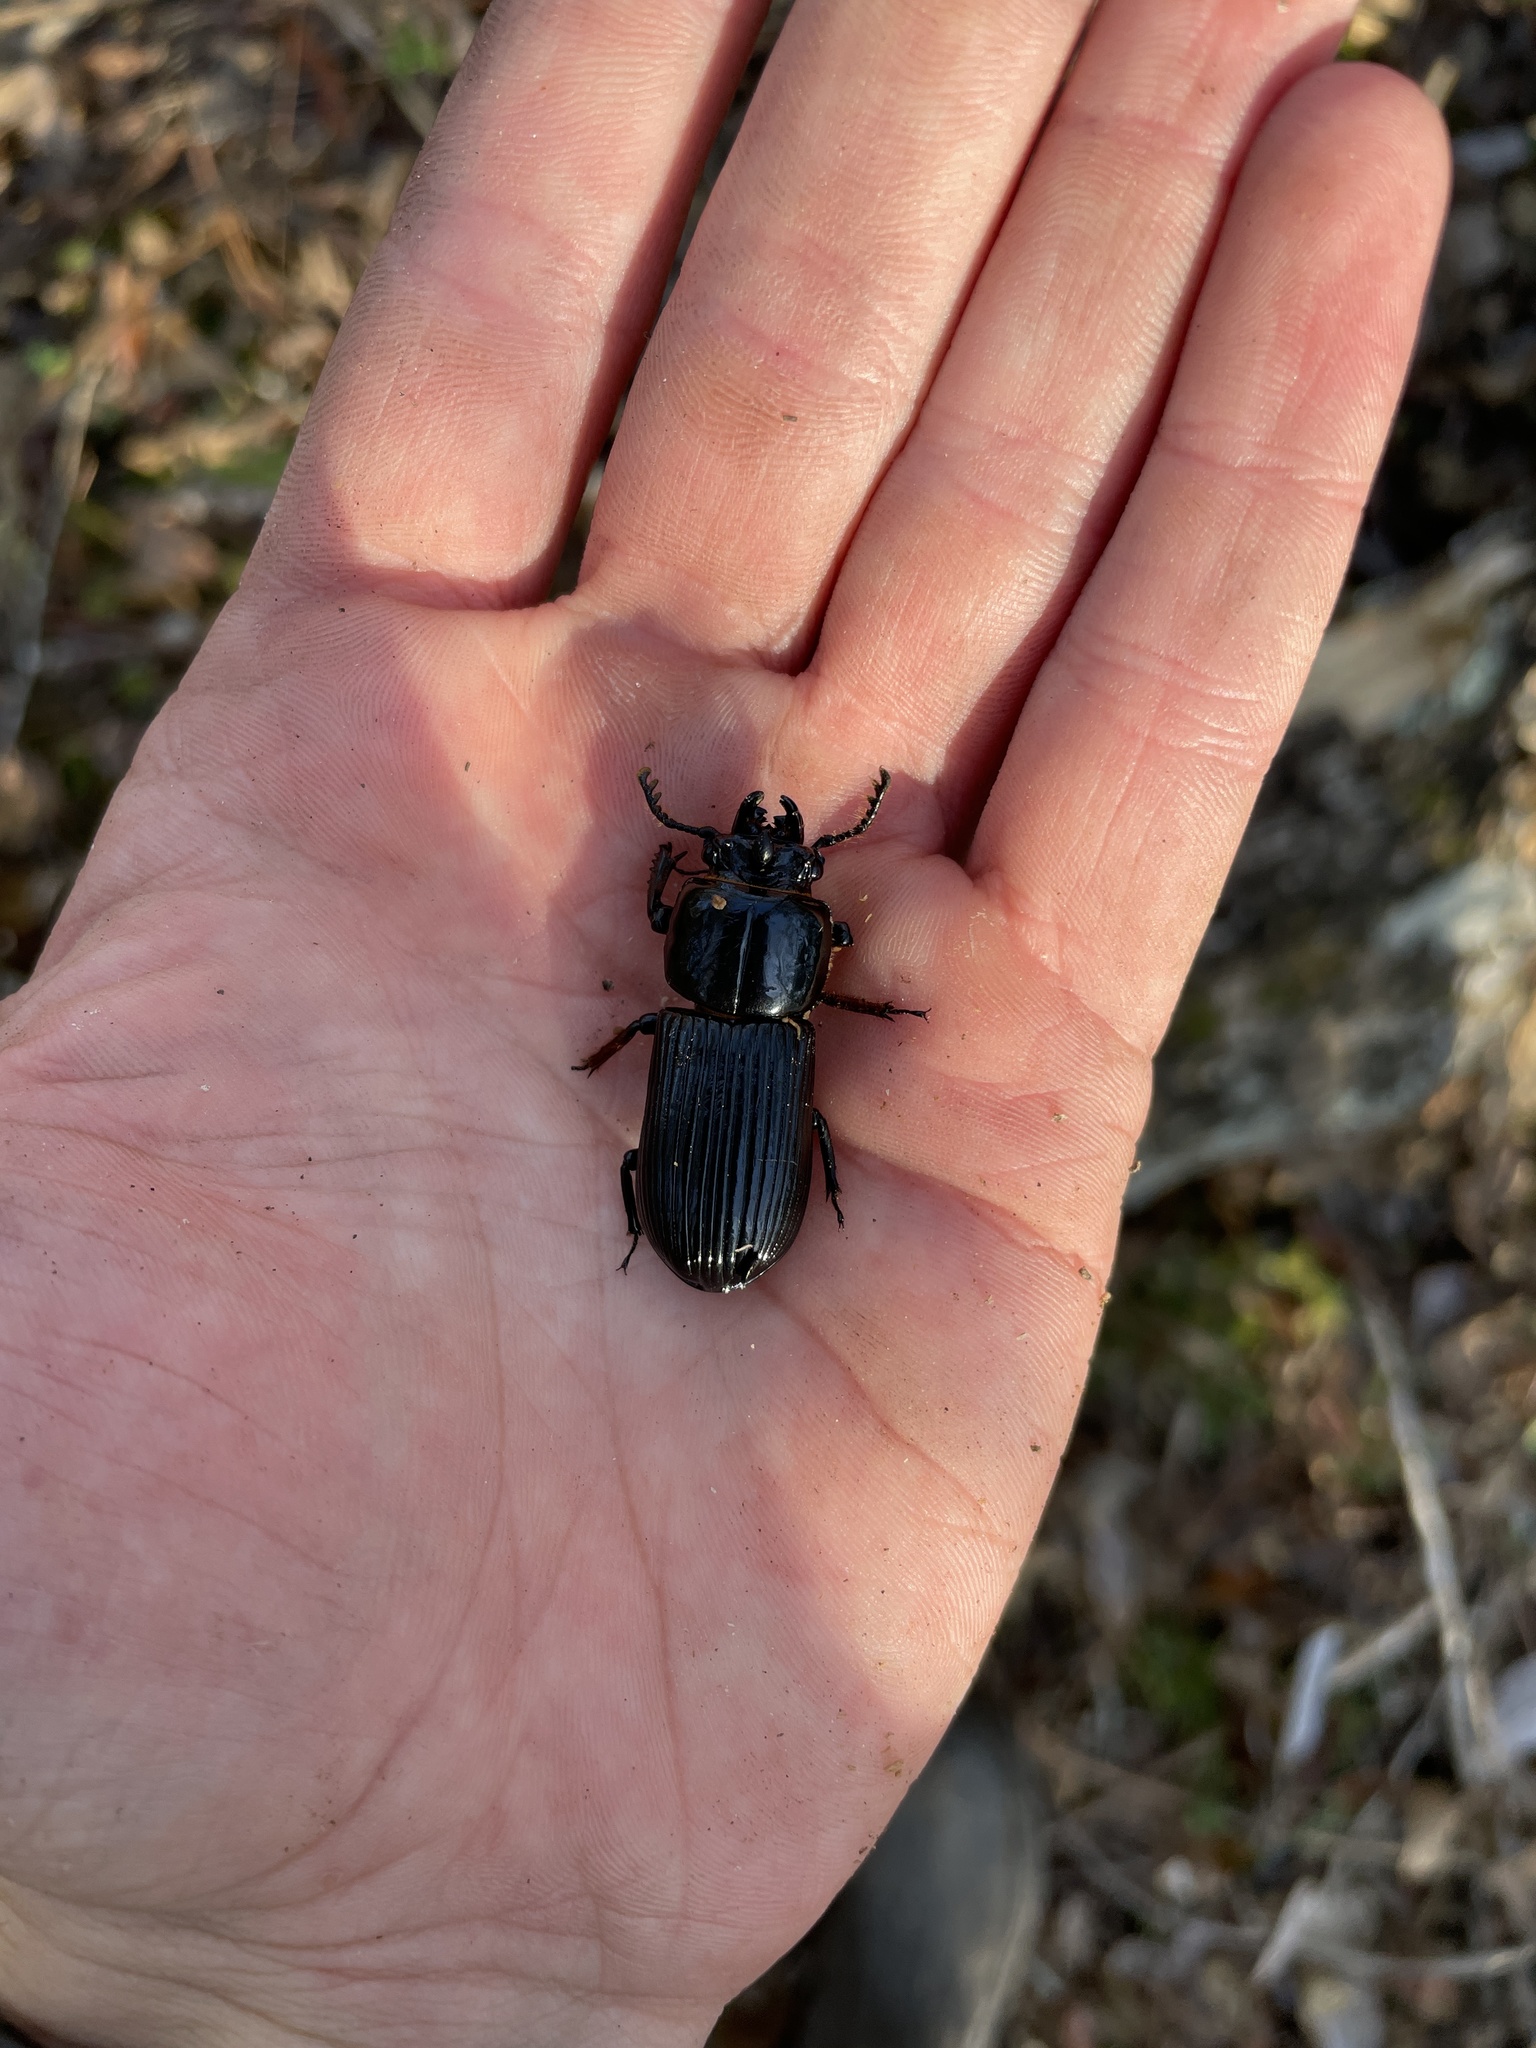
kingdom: Animalia
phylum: Arthropoda
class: Insecta
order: Coleoptera
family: Passalidae
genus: Odontotaenius
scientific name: Odontotaenius disjunctus
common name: Patent leather beetle
